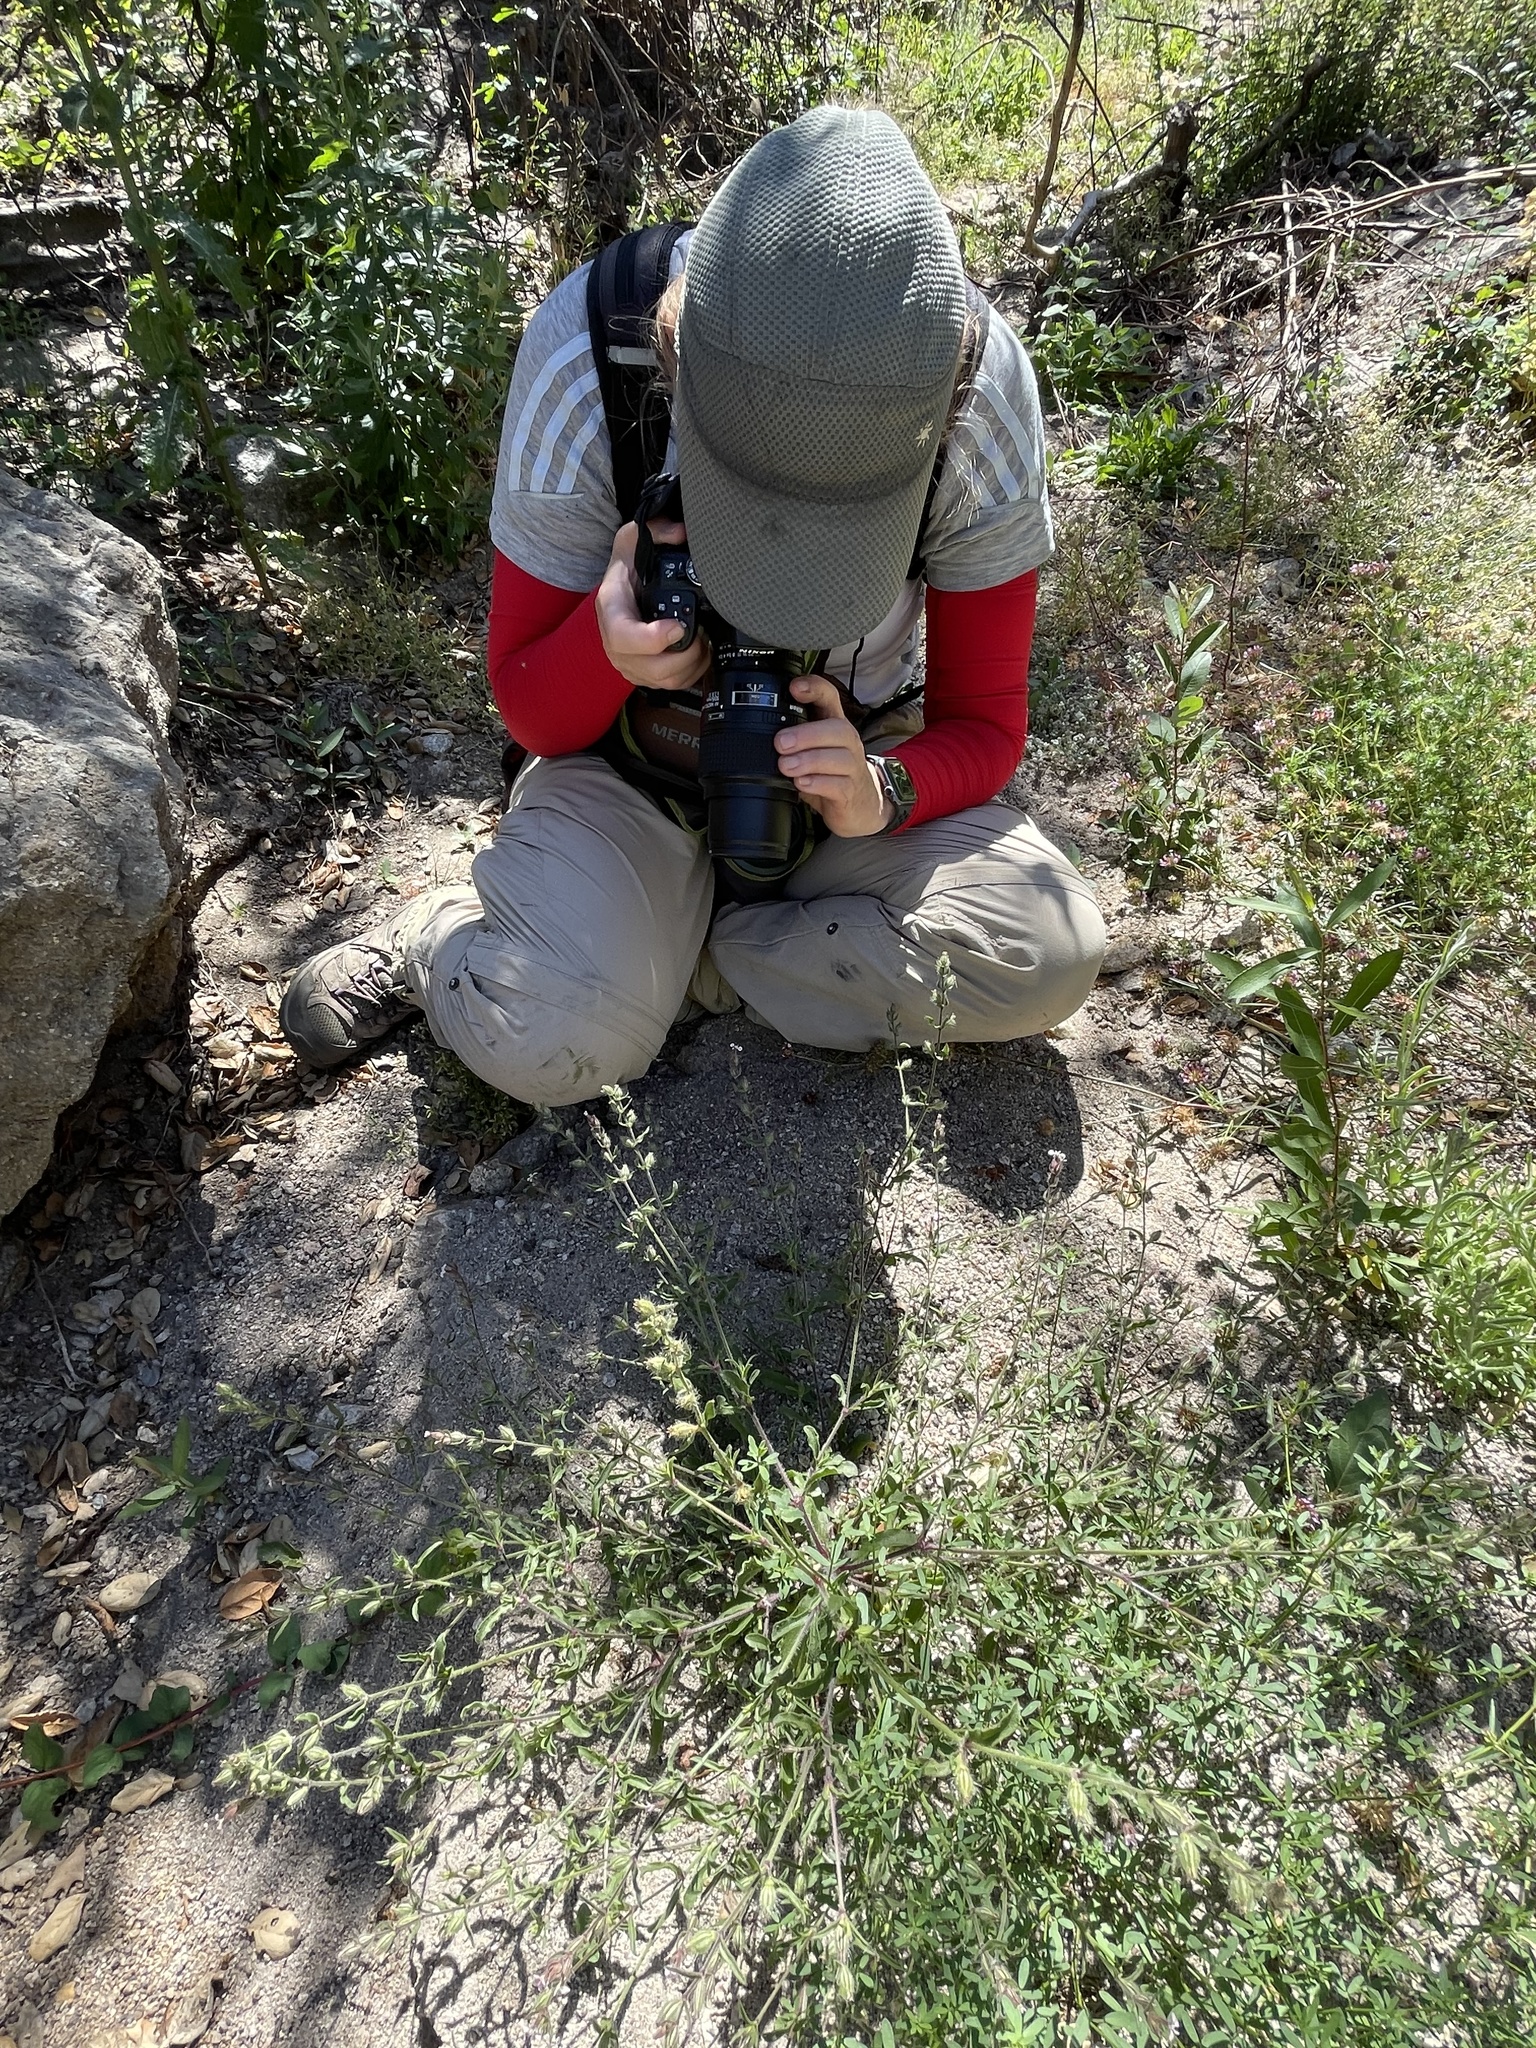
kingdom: Plantae
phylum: Tracheophyta
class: Magnoliopsida
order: Caryophyllales
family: Caryophyllaceae
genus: Silene
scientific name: Silene gallica
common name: Small-flowered catchfly
